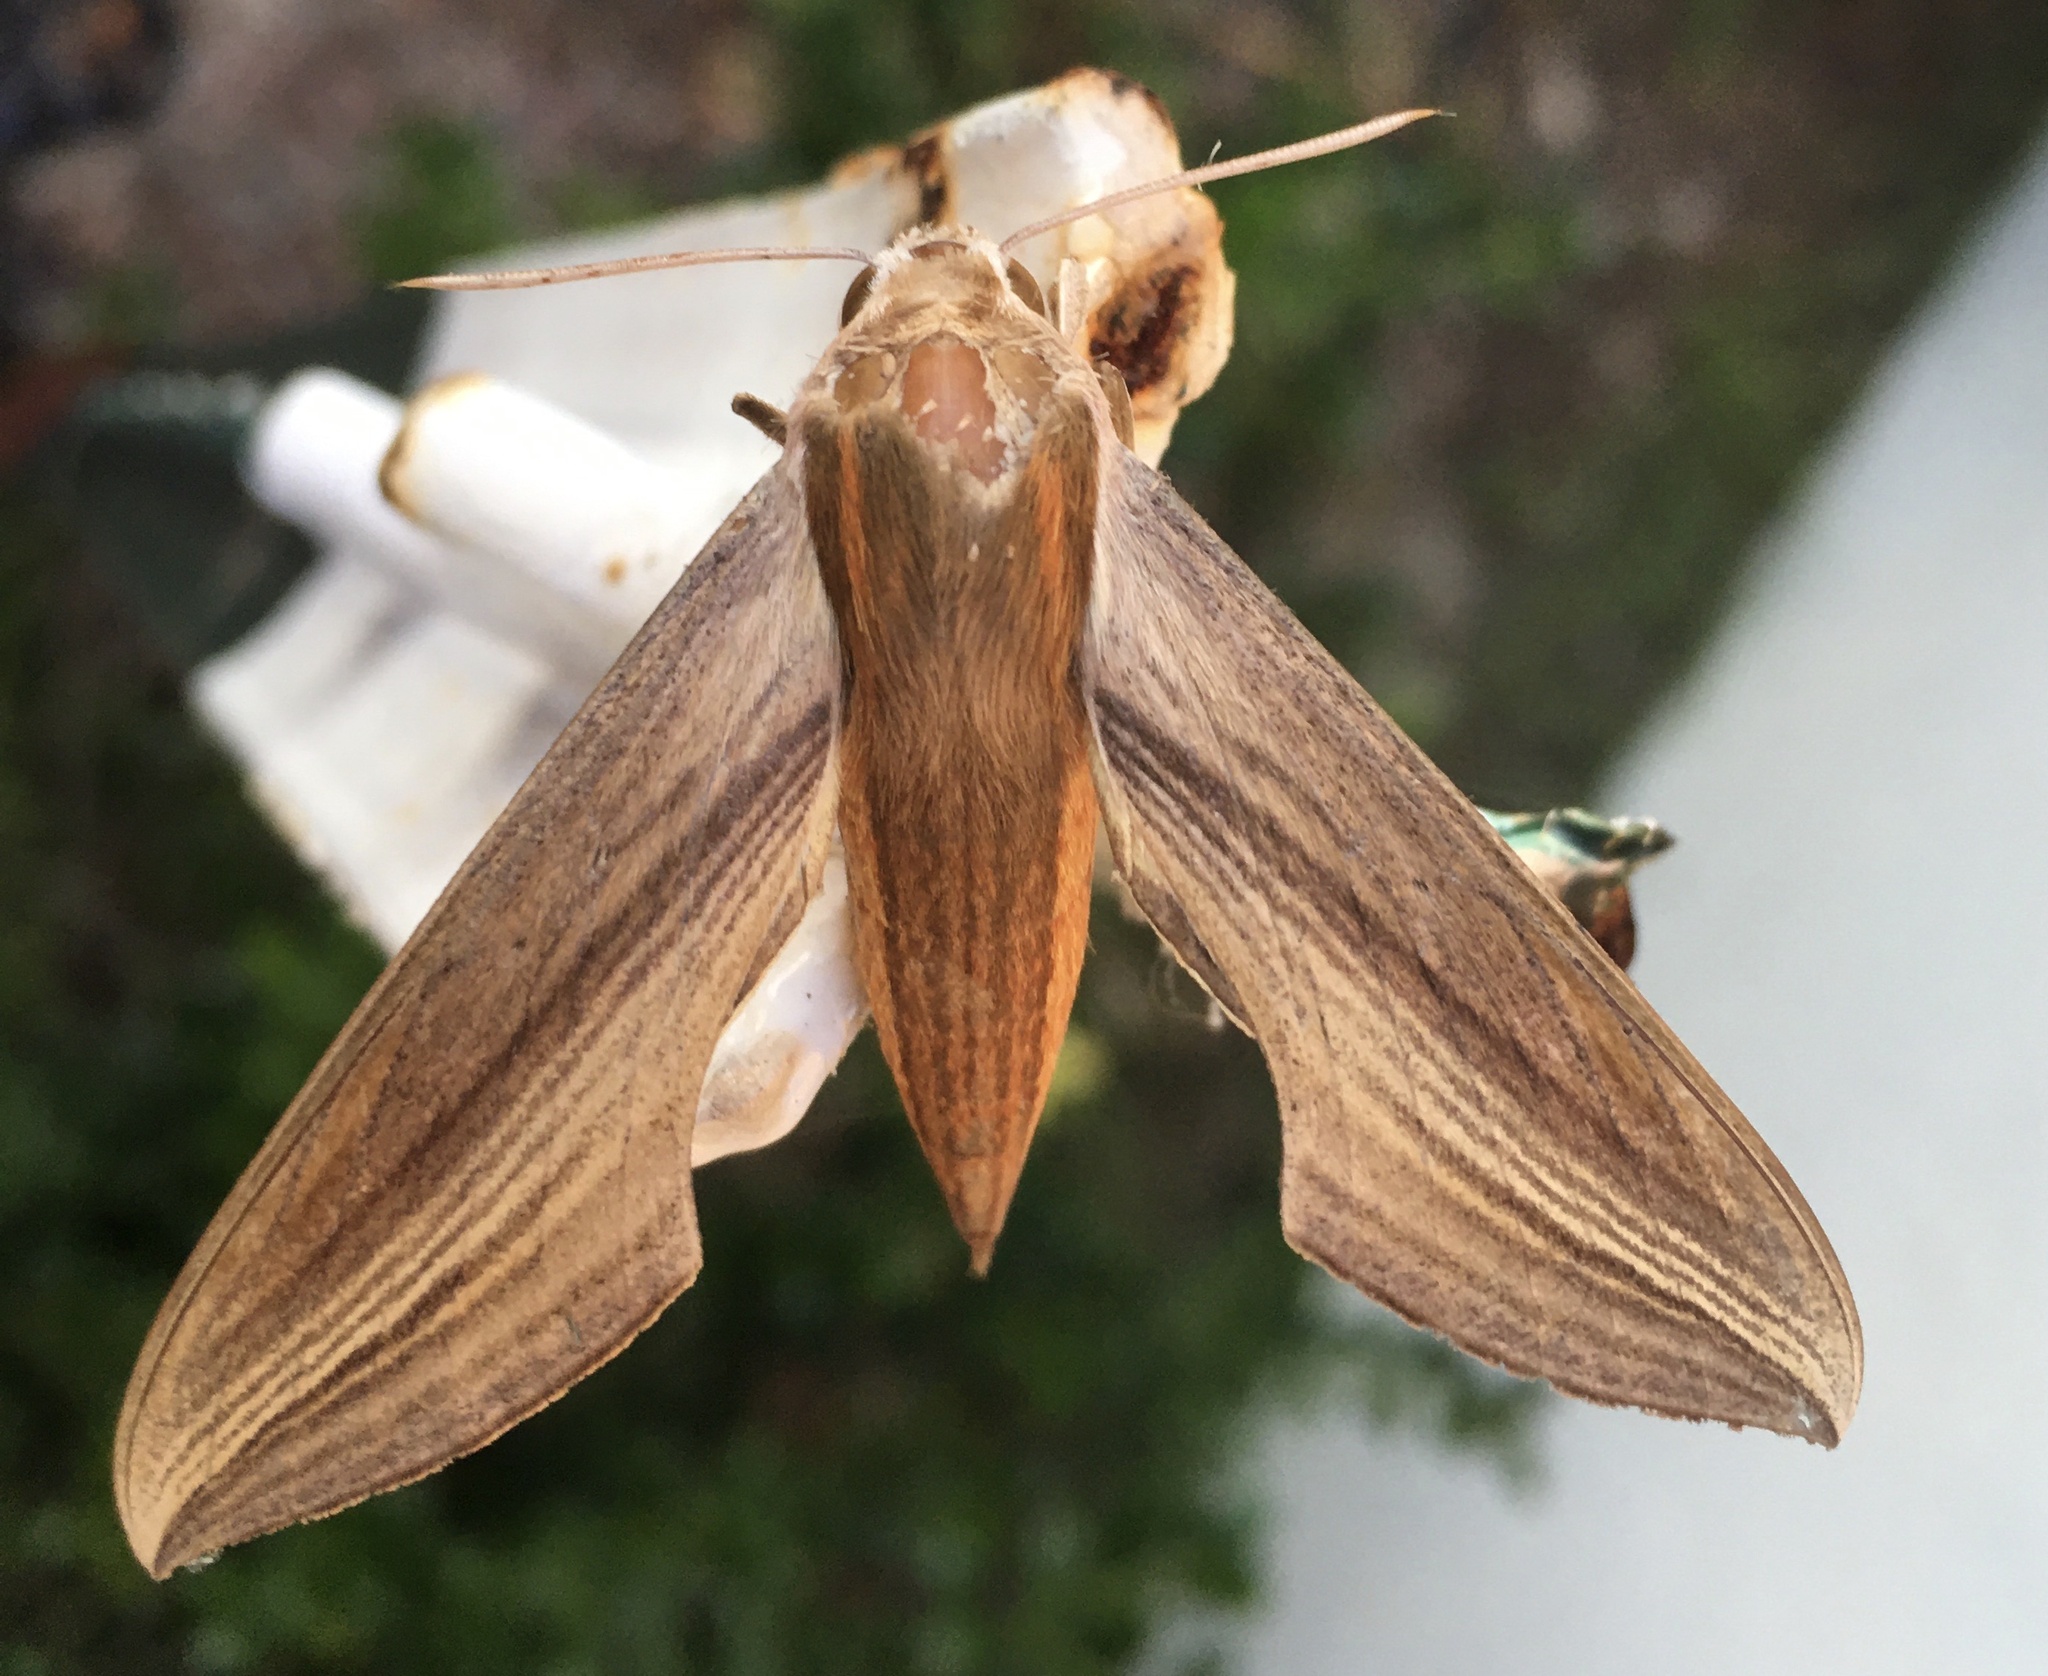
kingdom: Animalia
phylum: Arthropoda
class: Insecta
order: Lepidoptera
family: Sphingidae
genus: Xylophanes
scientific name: Xylophanes tersa
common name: Tersa sphinx
